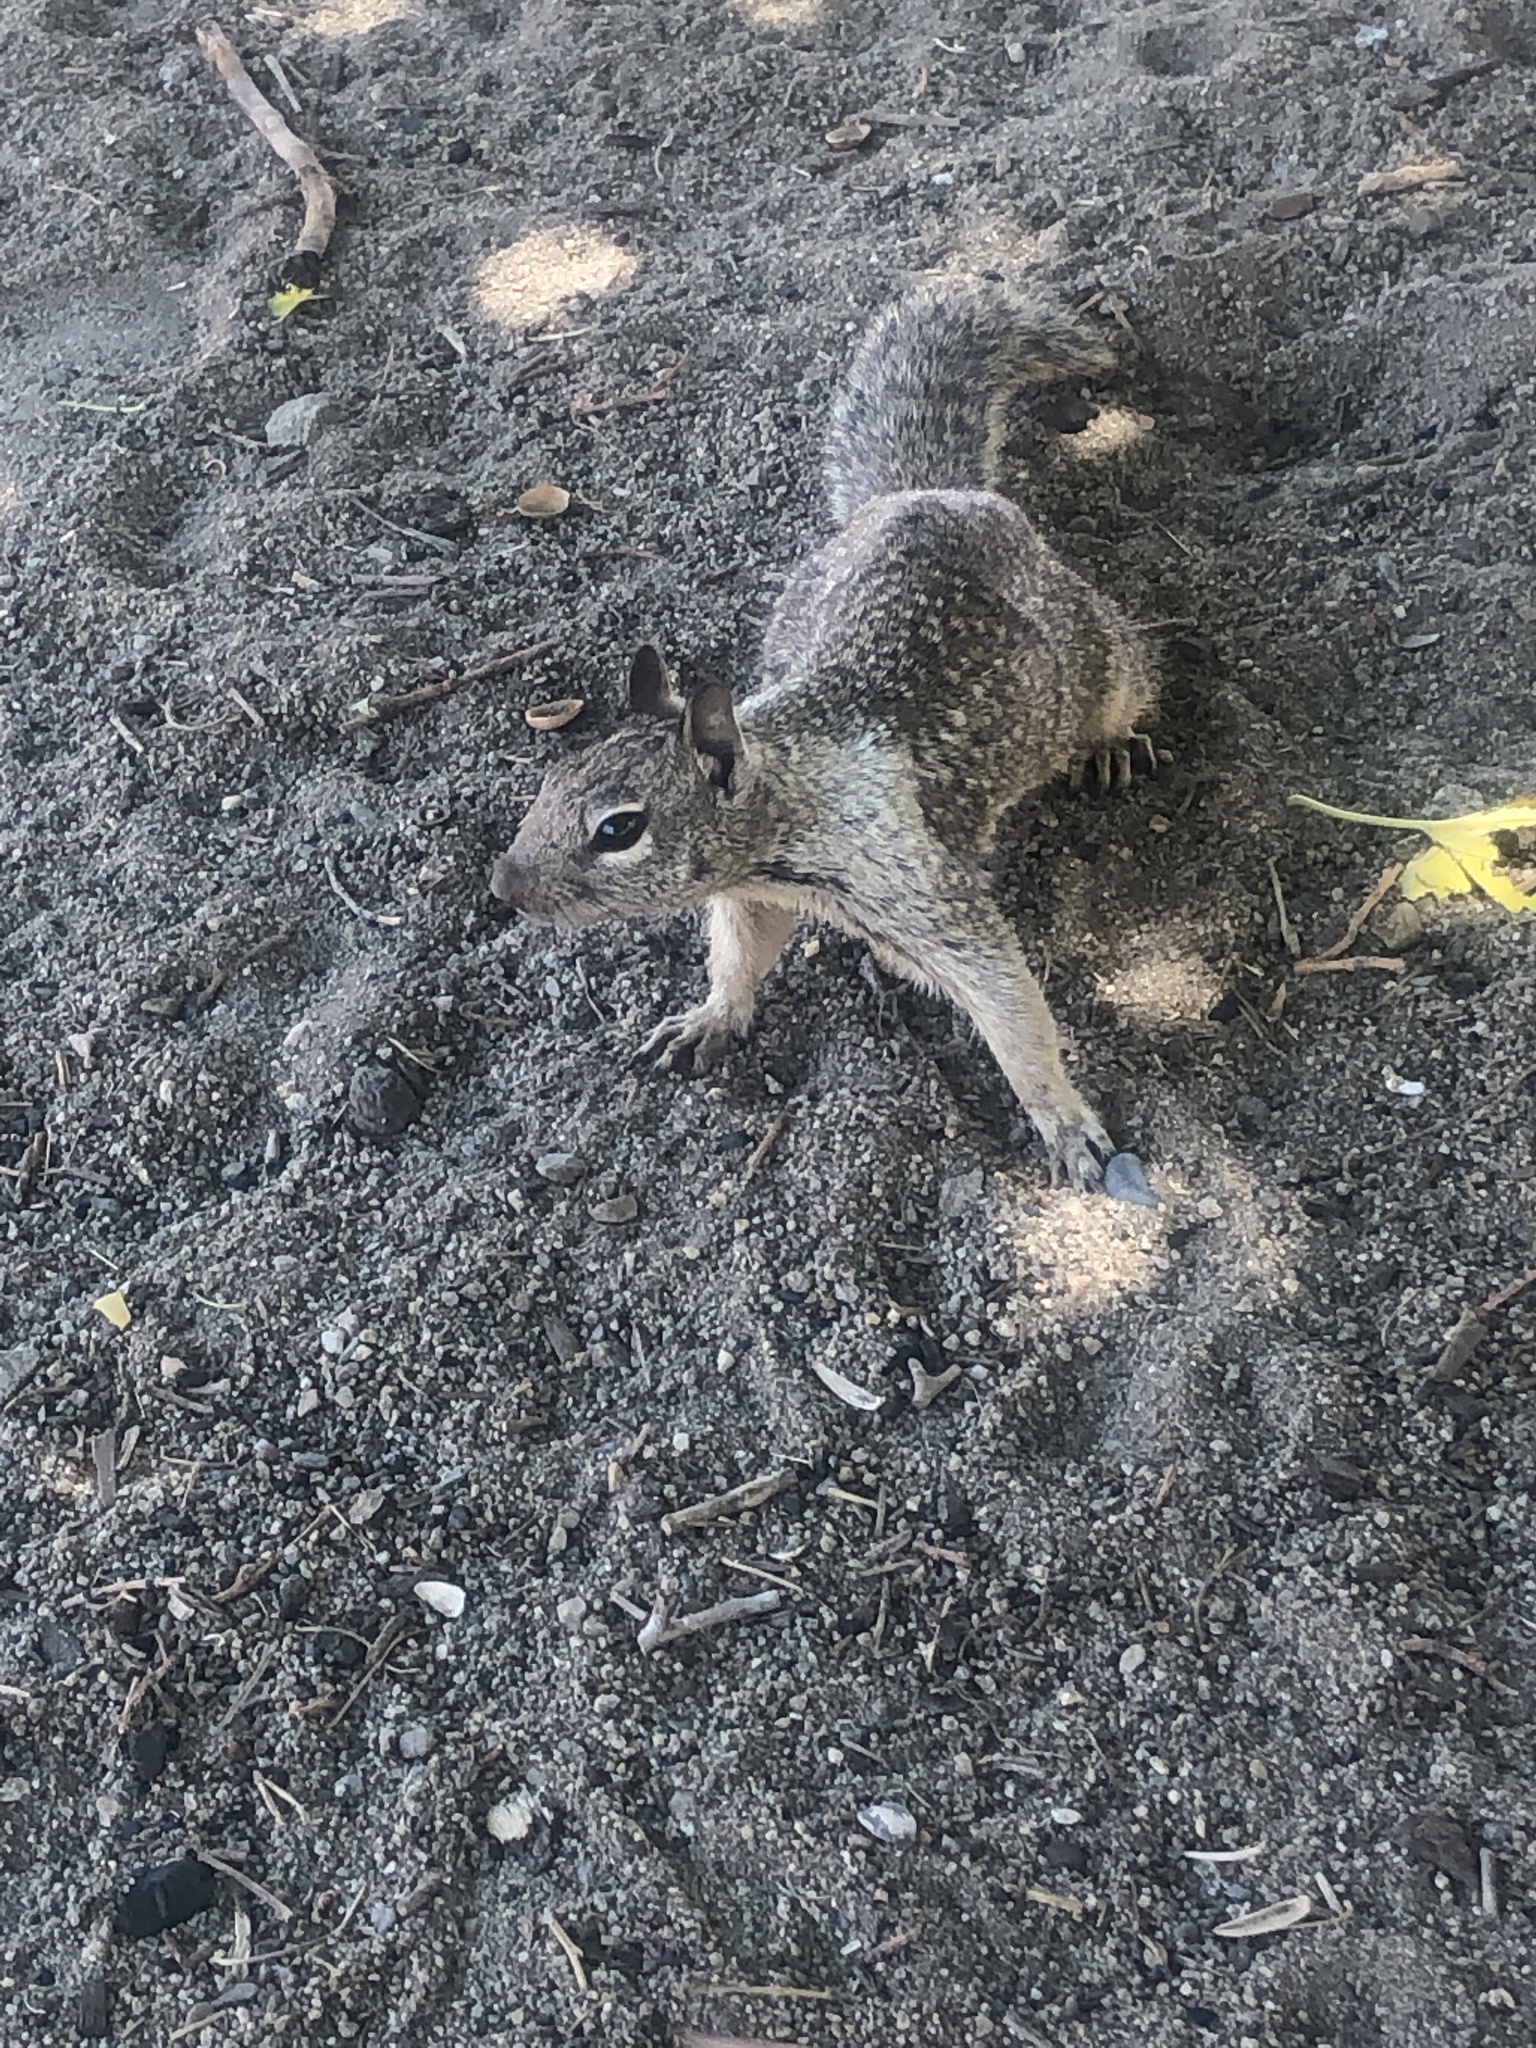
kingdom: Animalia
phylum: Chordata
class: Mammalia
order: Rodentia
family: Sciuridae
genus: Otospermophilus
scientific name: Otospermophilus beecheyi
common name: California ground squirrel
